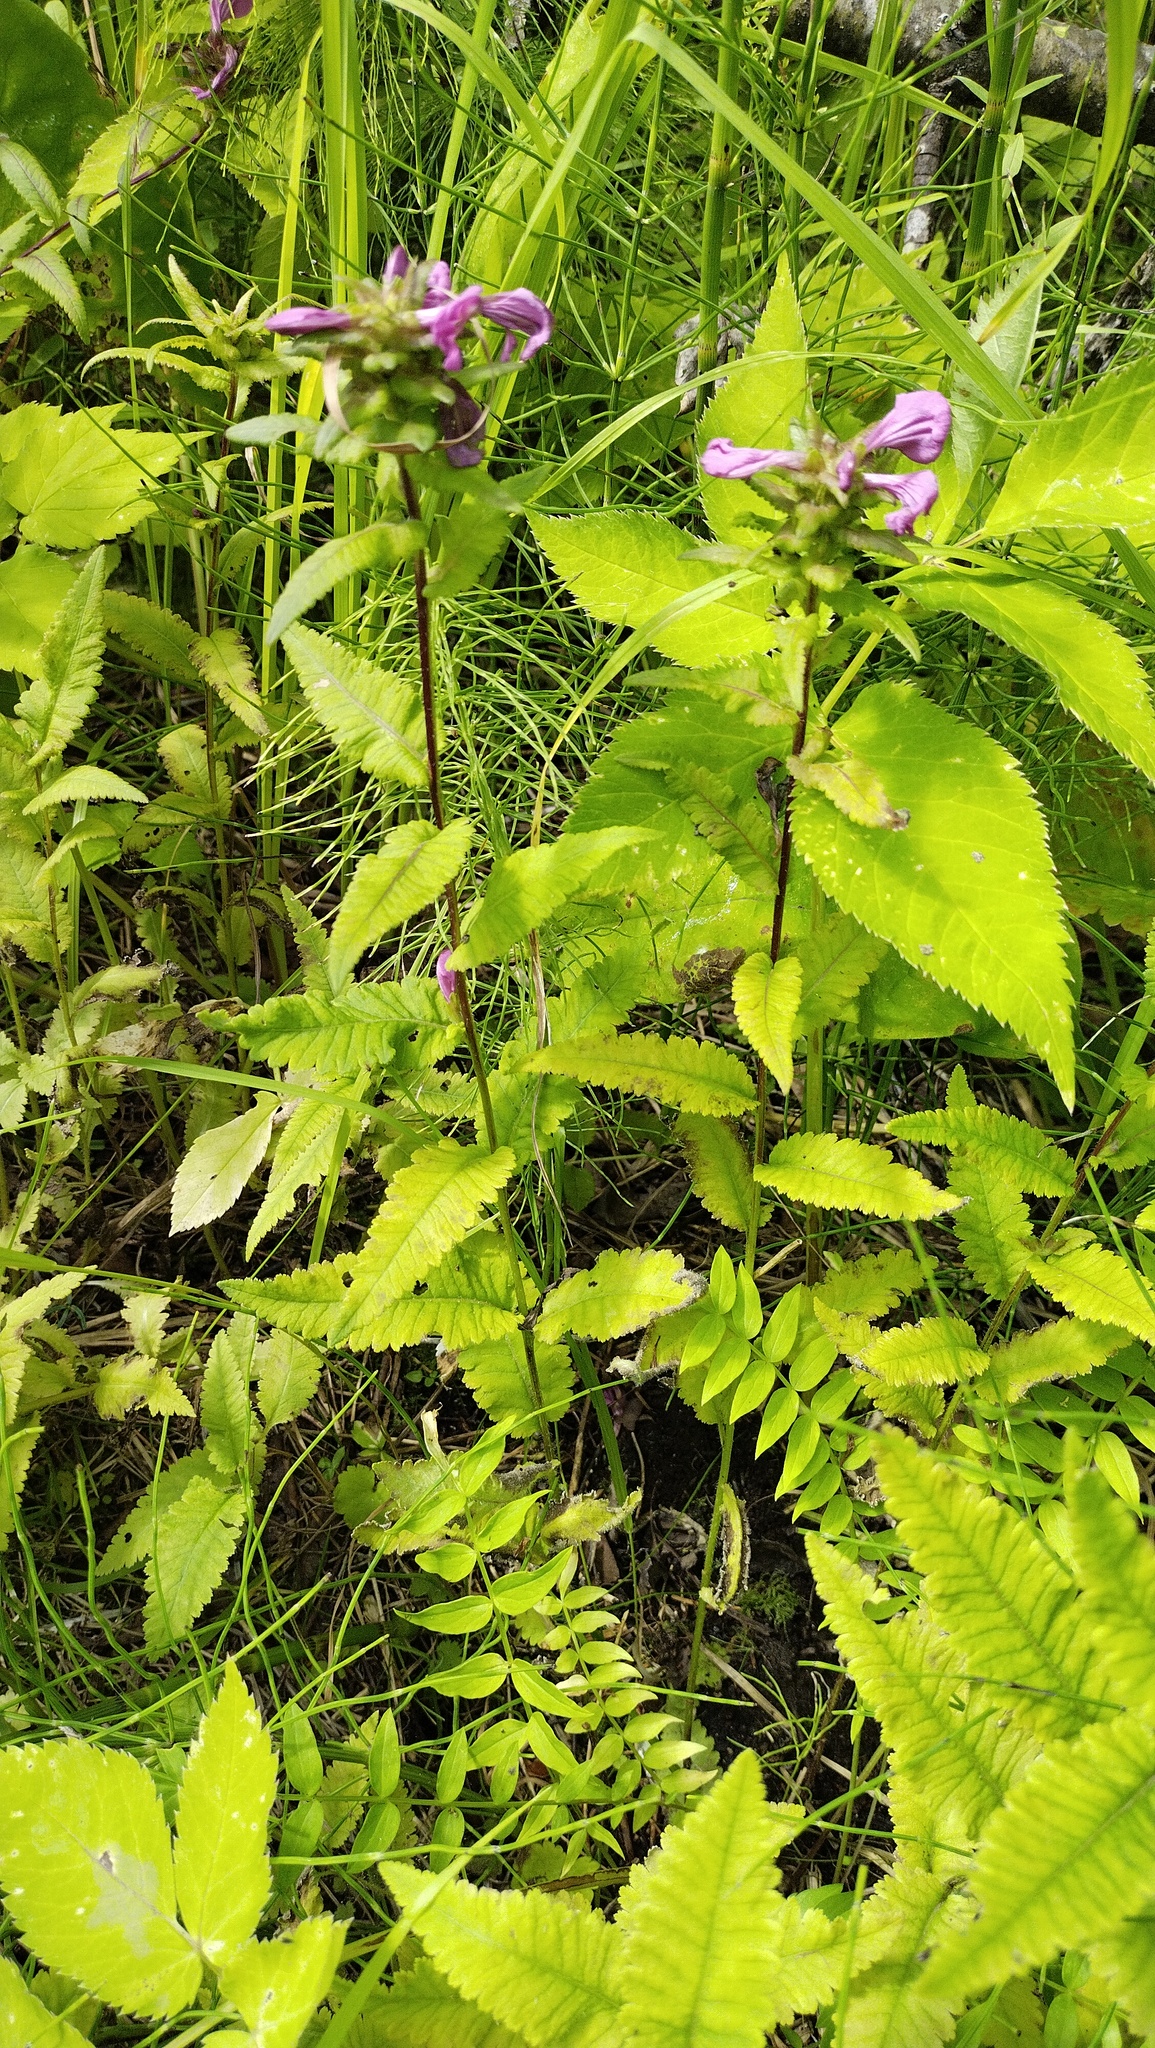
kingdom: Plantae
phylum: Tracheophyta
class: Magnoliopsida
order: Lamiales
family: Orobanchaceae
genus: Pedicularis
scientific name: Pedicularis resupinata
